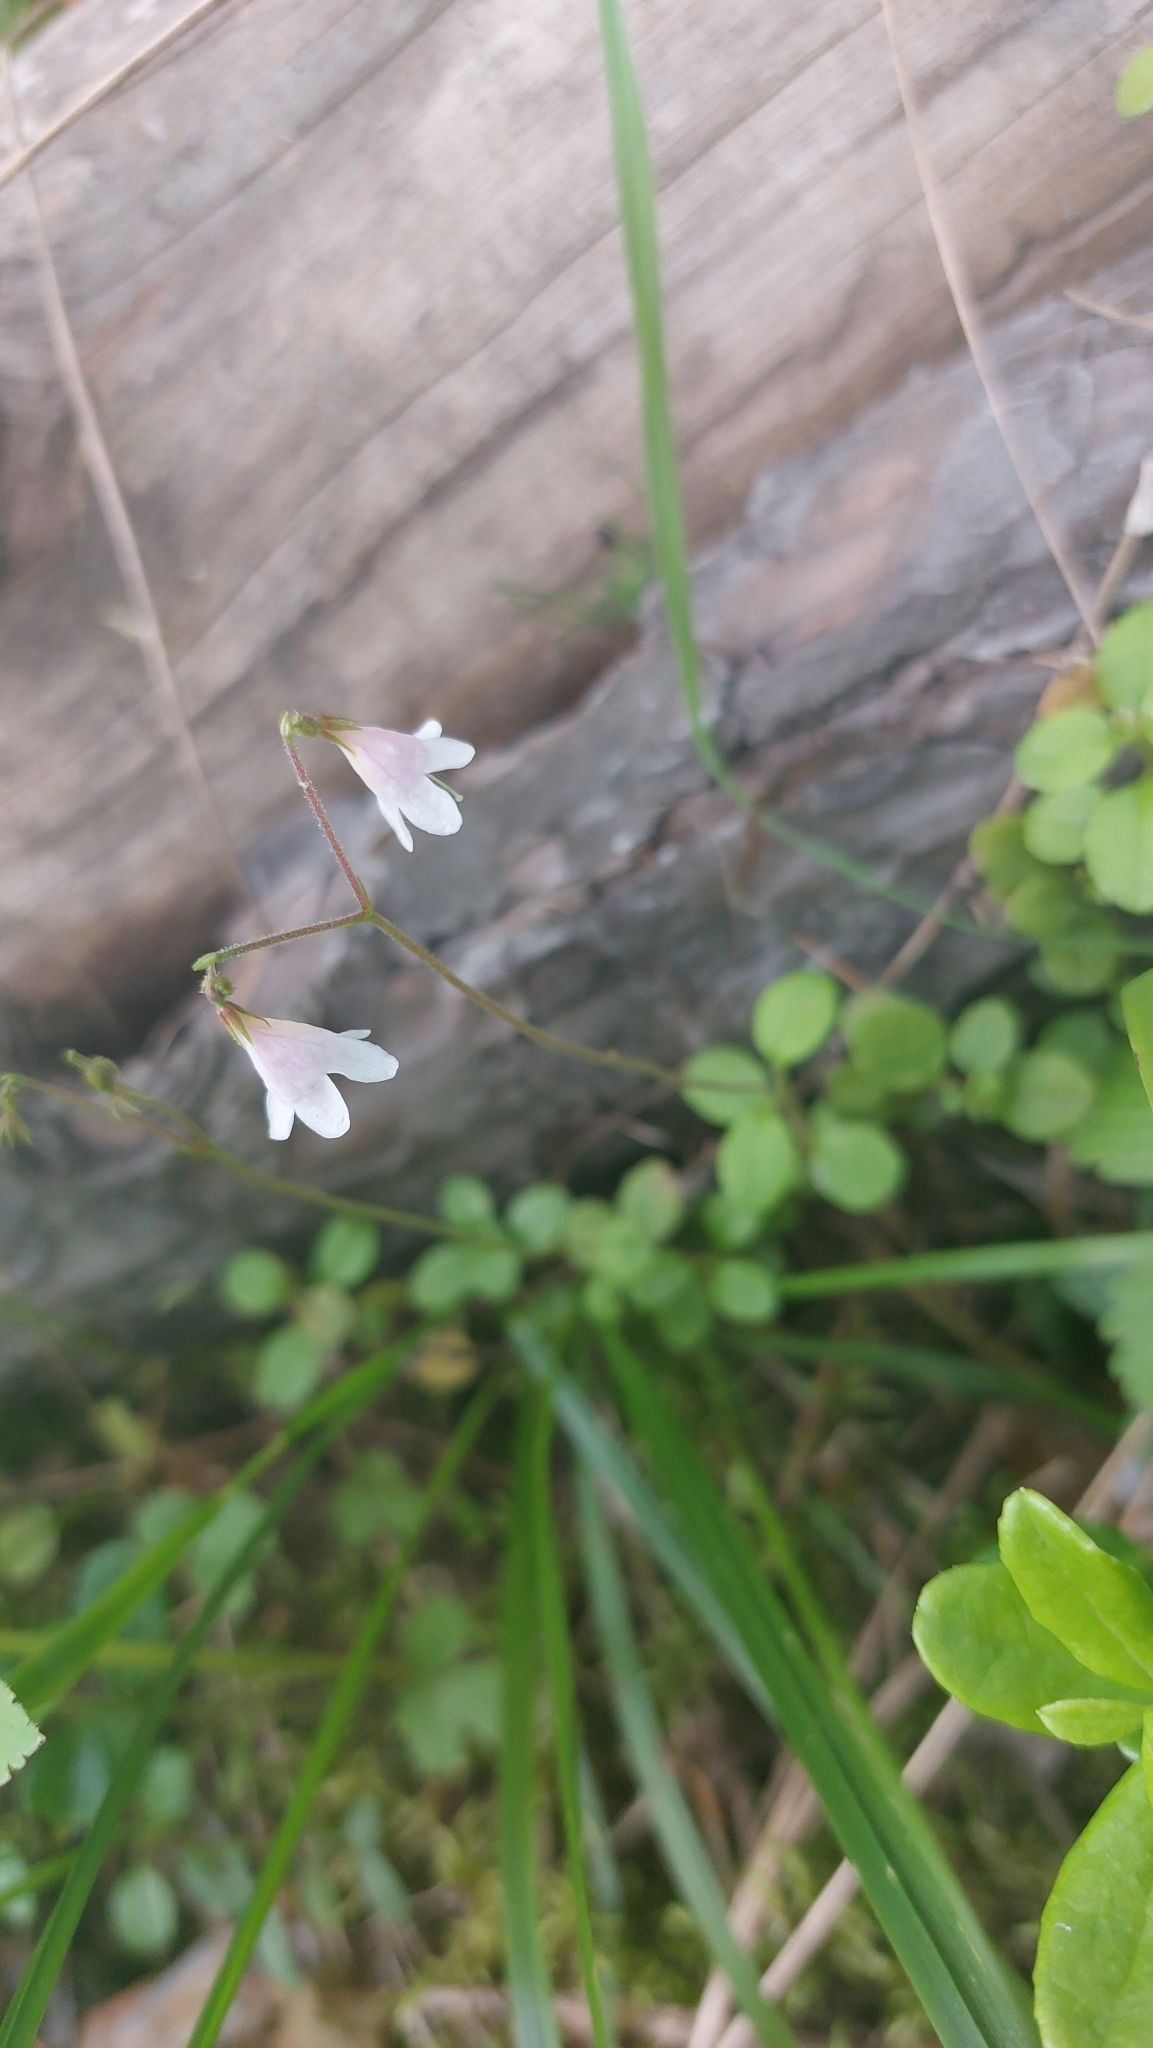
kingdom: Plantae
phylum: Tracheophyta
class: Magnoliopsida
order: Dipsacales
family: Caprifoliaceae
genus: Linnaea
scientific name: Linnaea borealis
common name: Twinflower
